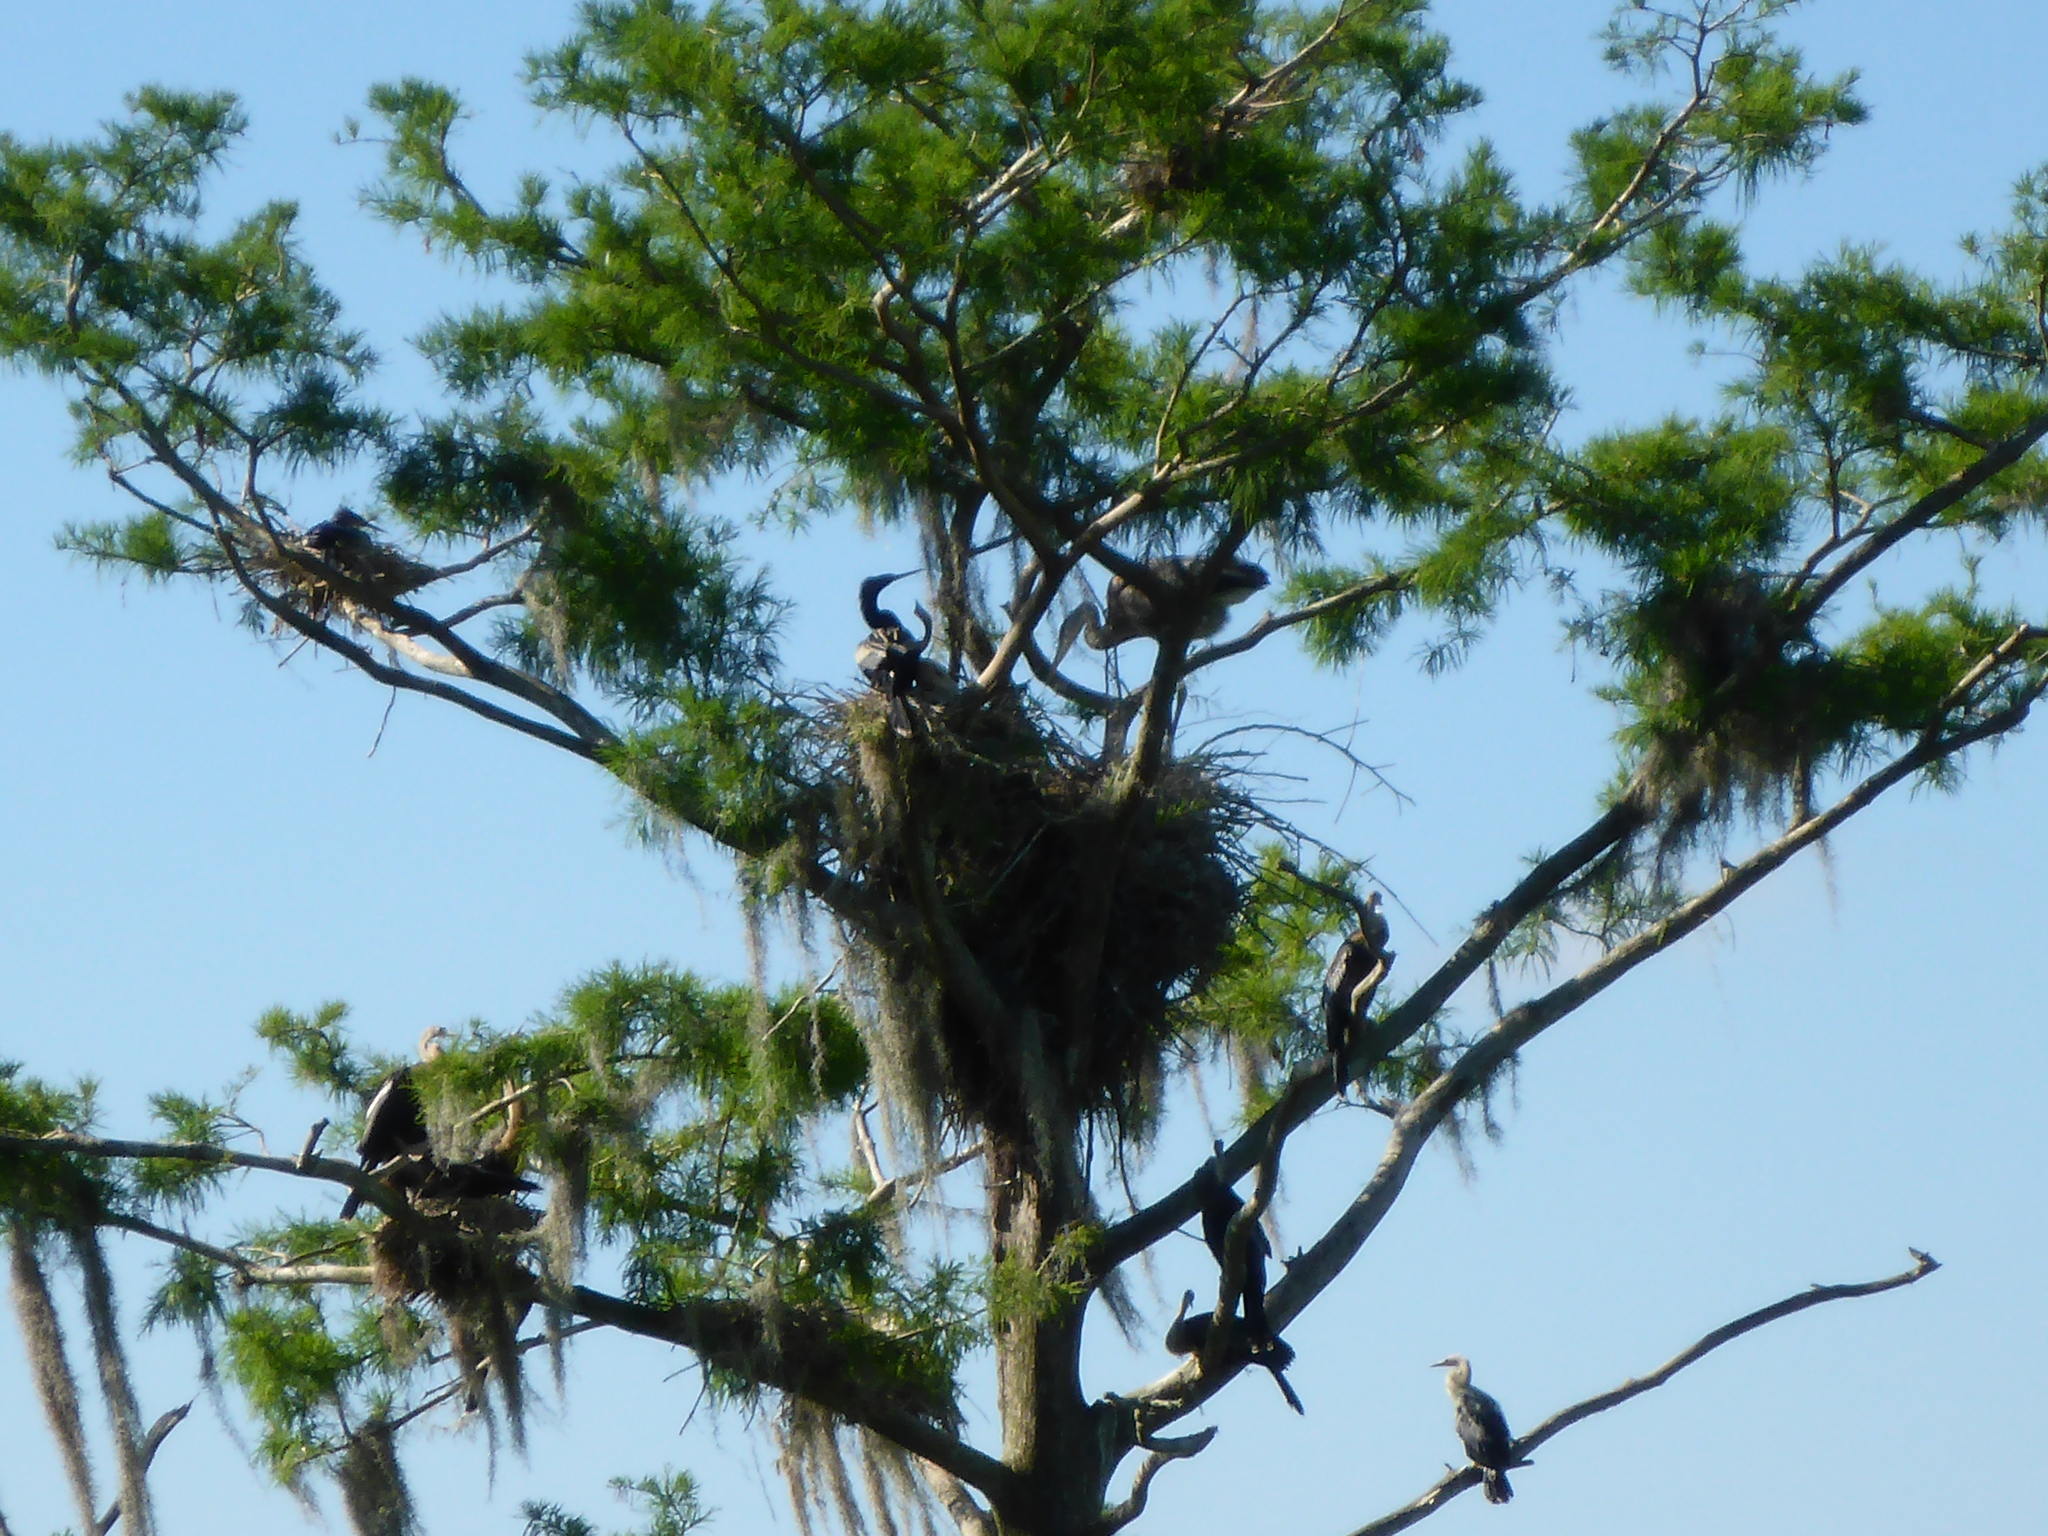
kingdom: Animalia
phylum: Chordata
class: Aves
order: Pelecaniformes
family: Ardeidae
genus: Ardea
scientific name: Ardea herodias
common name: Great blue heron
